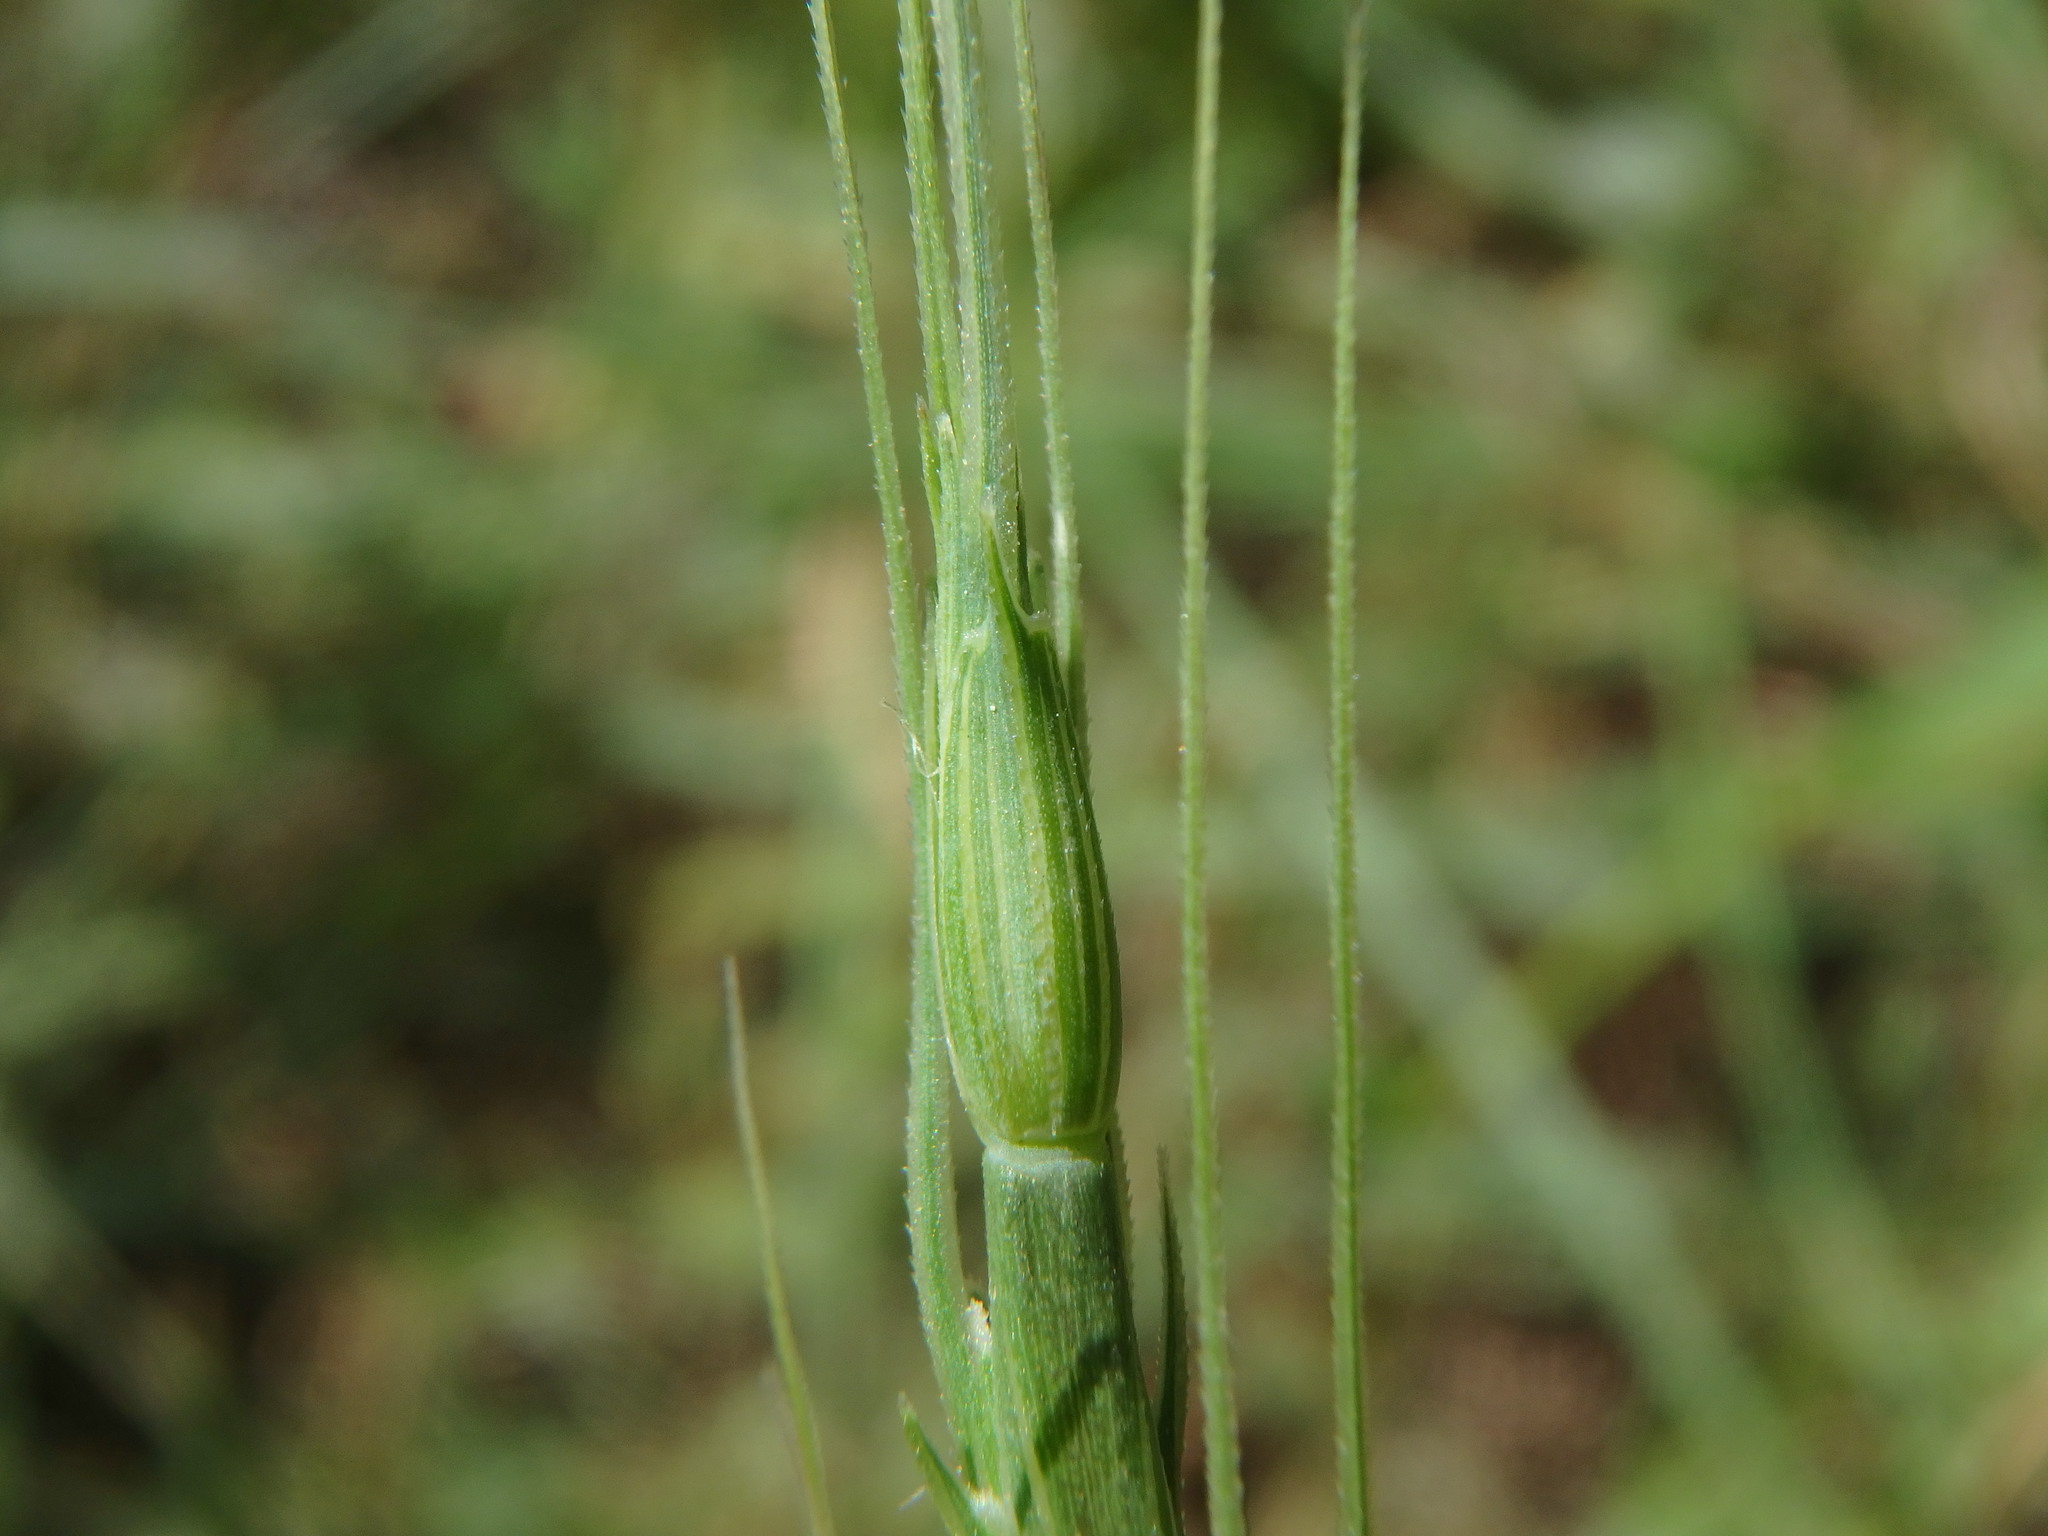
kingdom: Plantae
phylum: Tracheophyta
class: Liliopsida
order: Poales
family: Poaceae
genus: Aegilops
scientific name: Aegilops ventricosa
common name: Swollen goat grass
